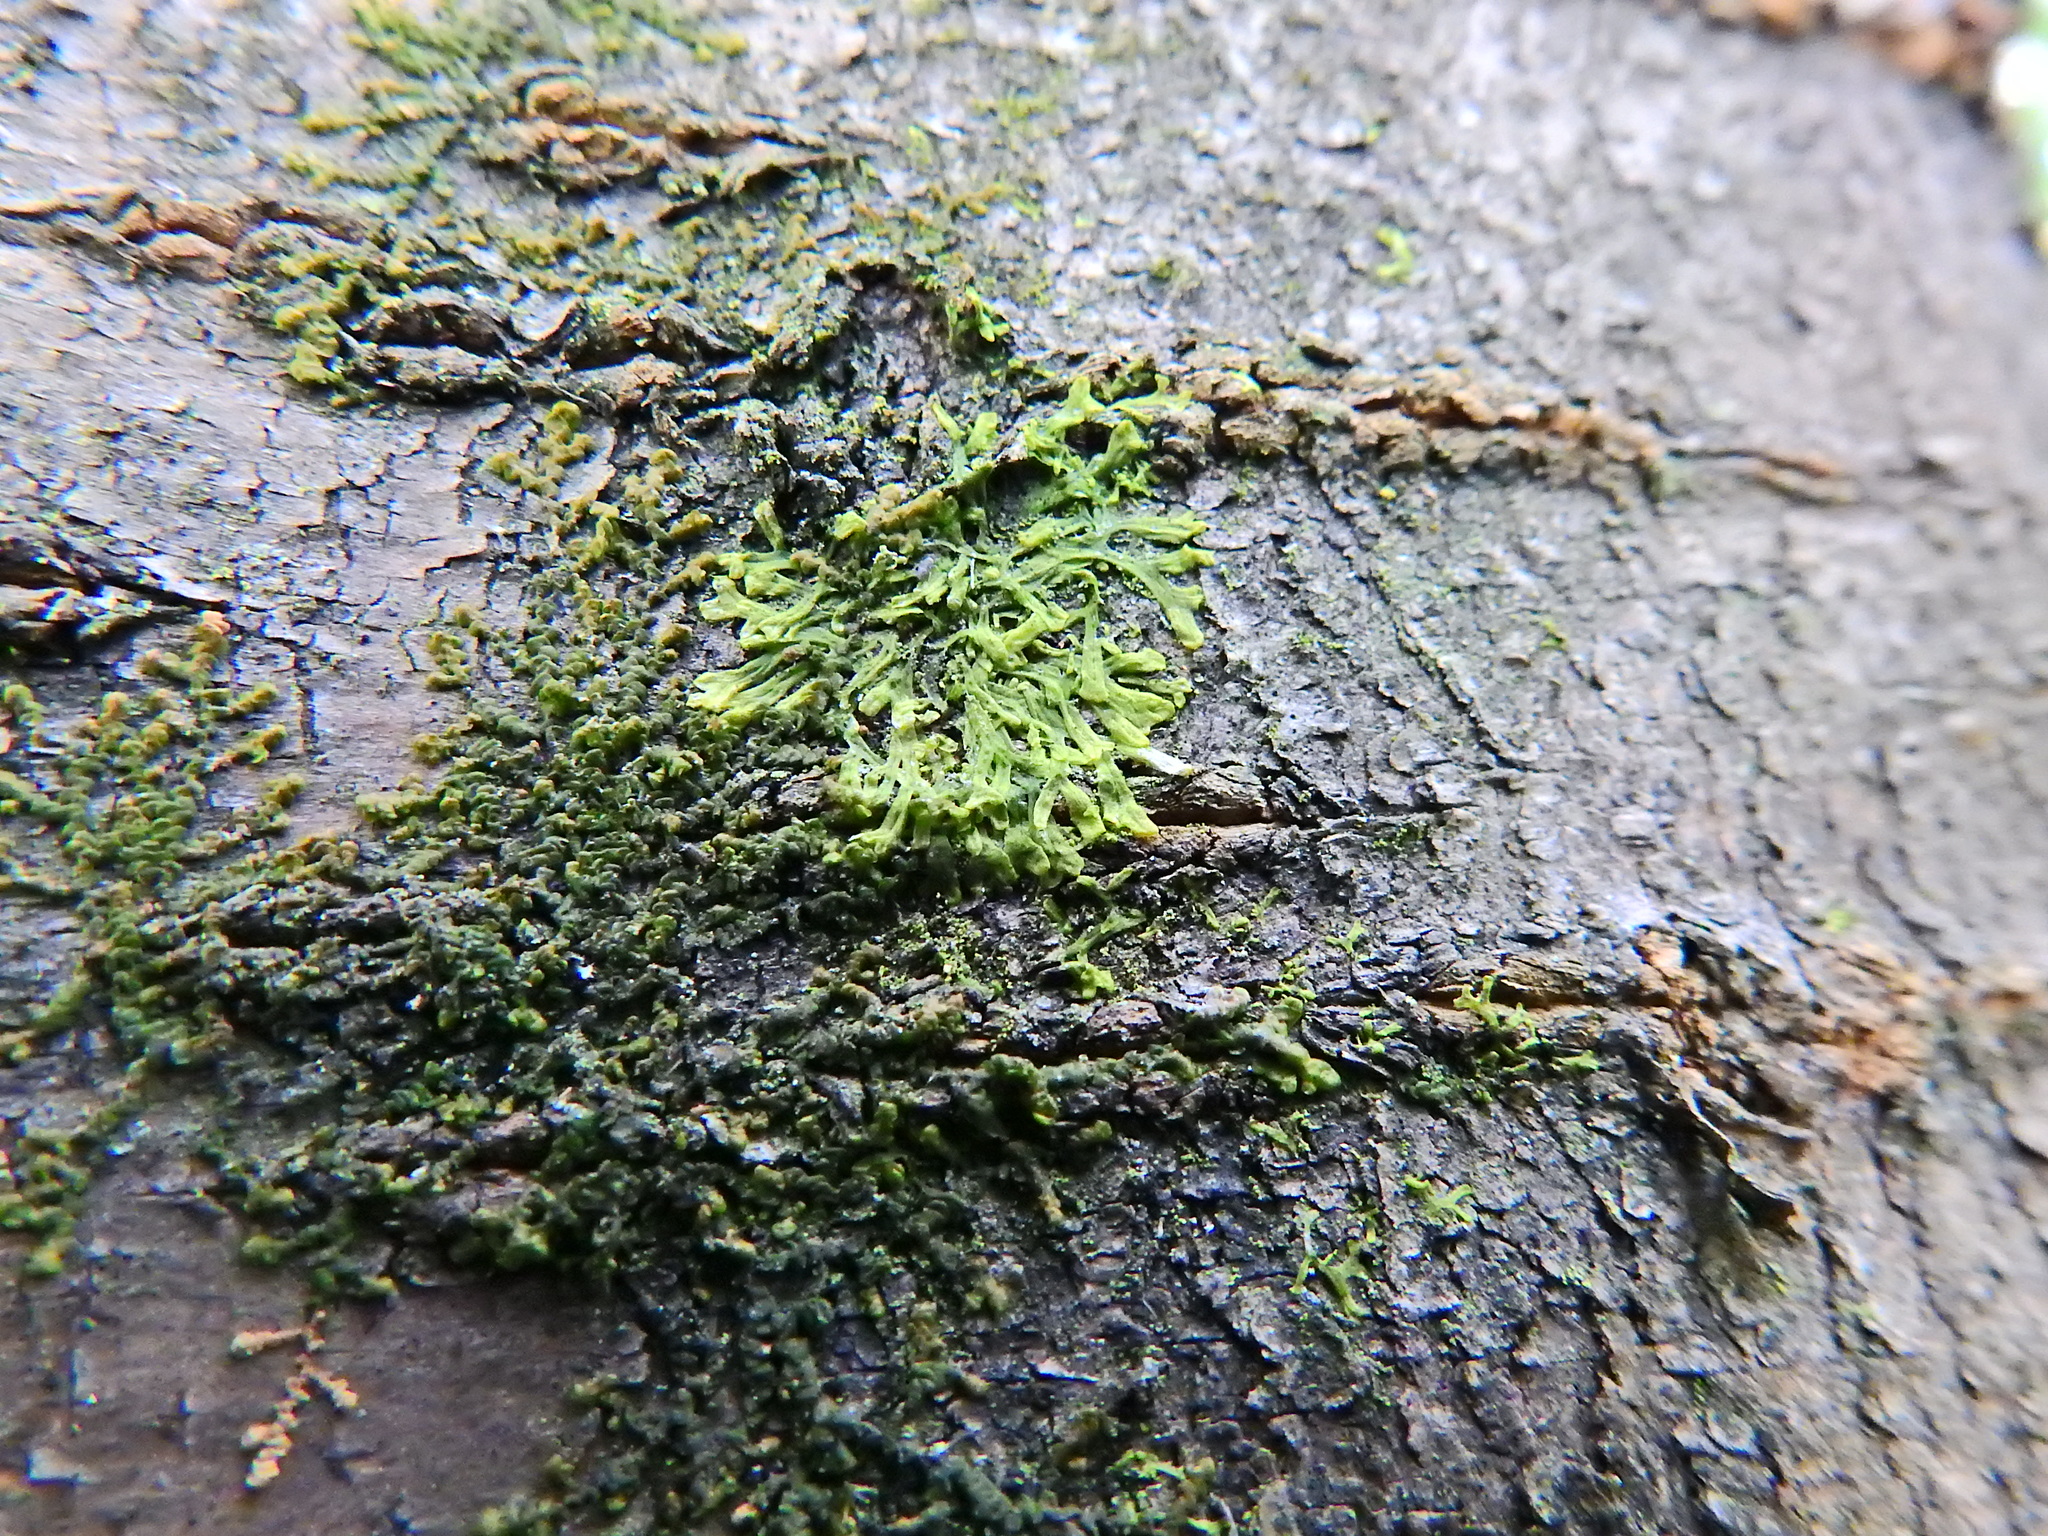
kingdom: Plantae
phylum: Marchantiophyta
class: Jungermanniopsida
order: Metzgeriales
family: Metzgeriaceae
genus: Metzgeria
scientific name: Metzgeria furcata
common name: Forked veilwort
